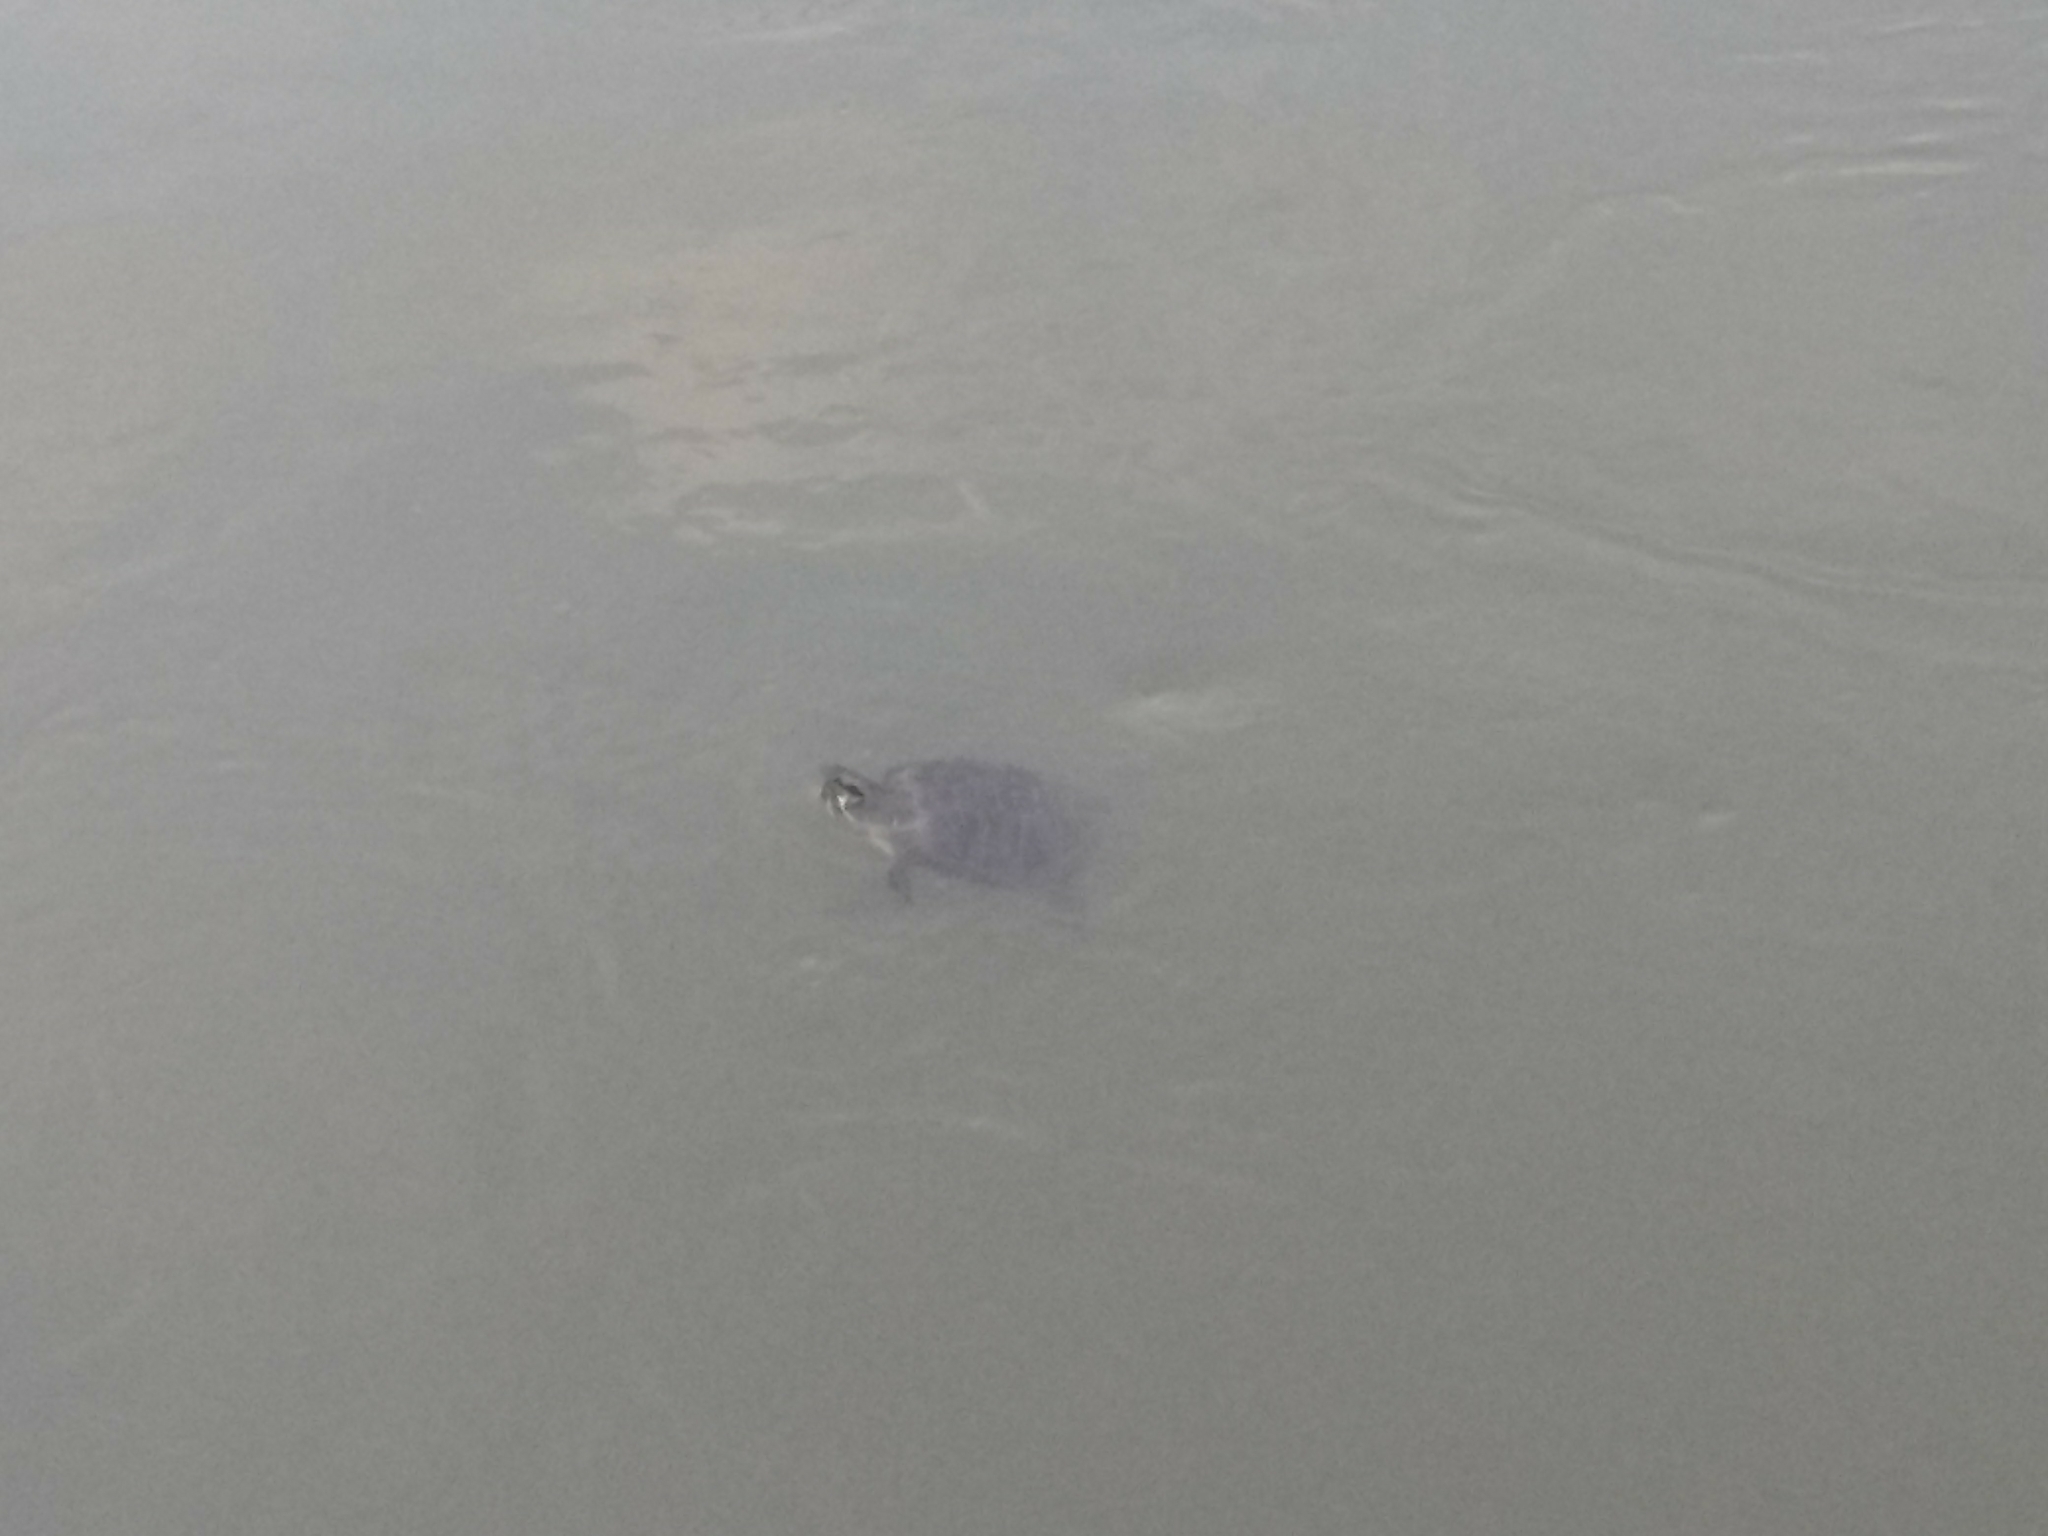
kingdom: Animalia
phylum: Chordata
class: Testudines
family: Emydidae
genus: Trachemys
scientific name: Trachemys scripta
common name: Slider
